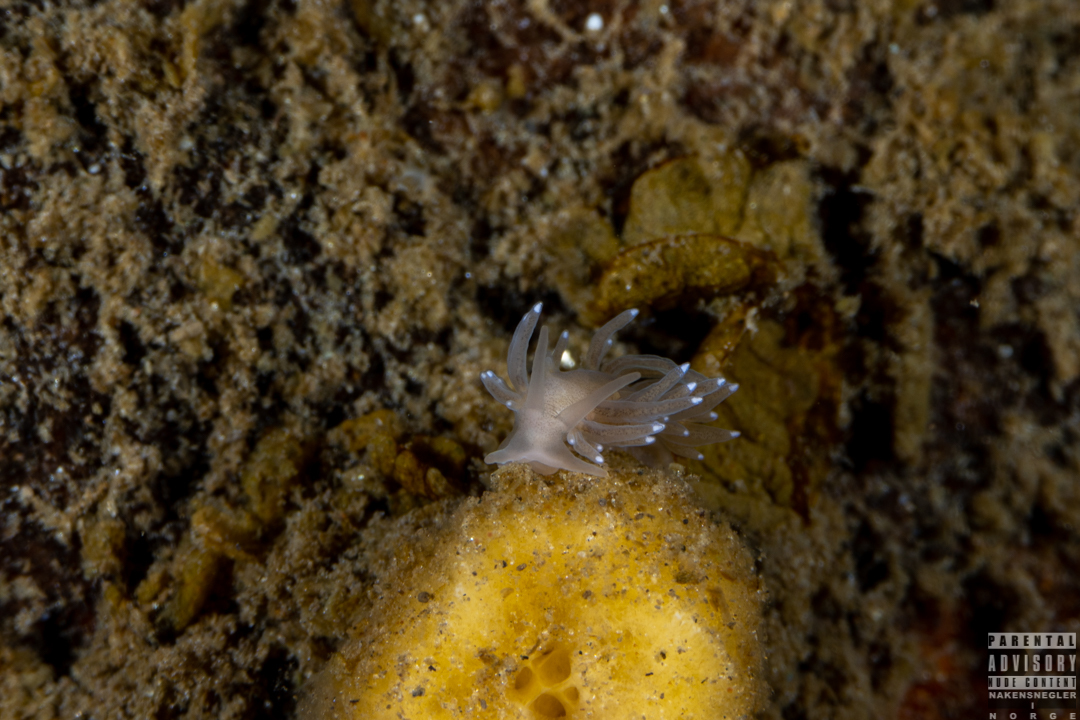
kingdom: Animalia
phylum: Mollusca
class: Gastropoda
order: Nudibranchia
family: Cuthonidae
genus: Bohuslania
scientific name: Bohuslania matsmichaeli
